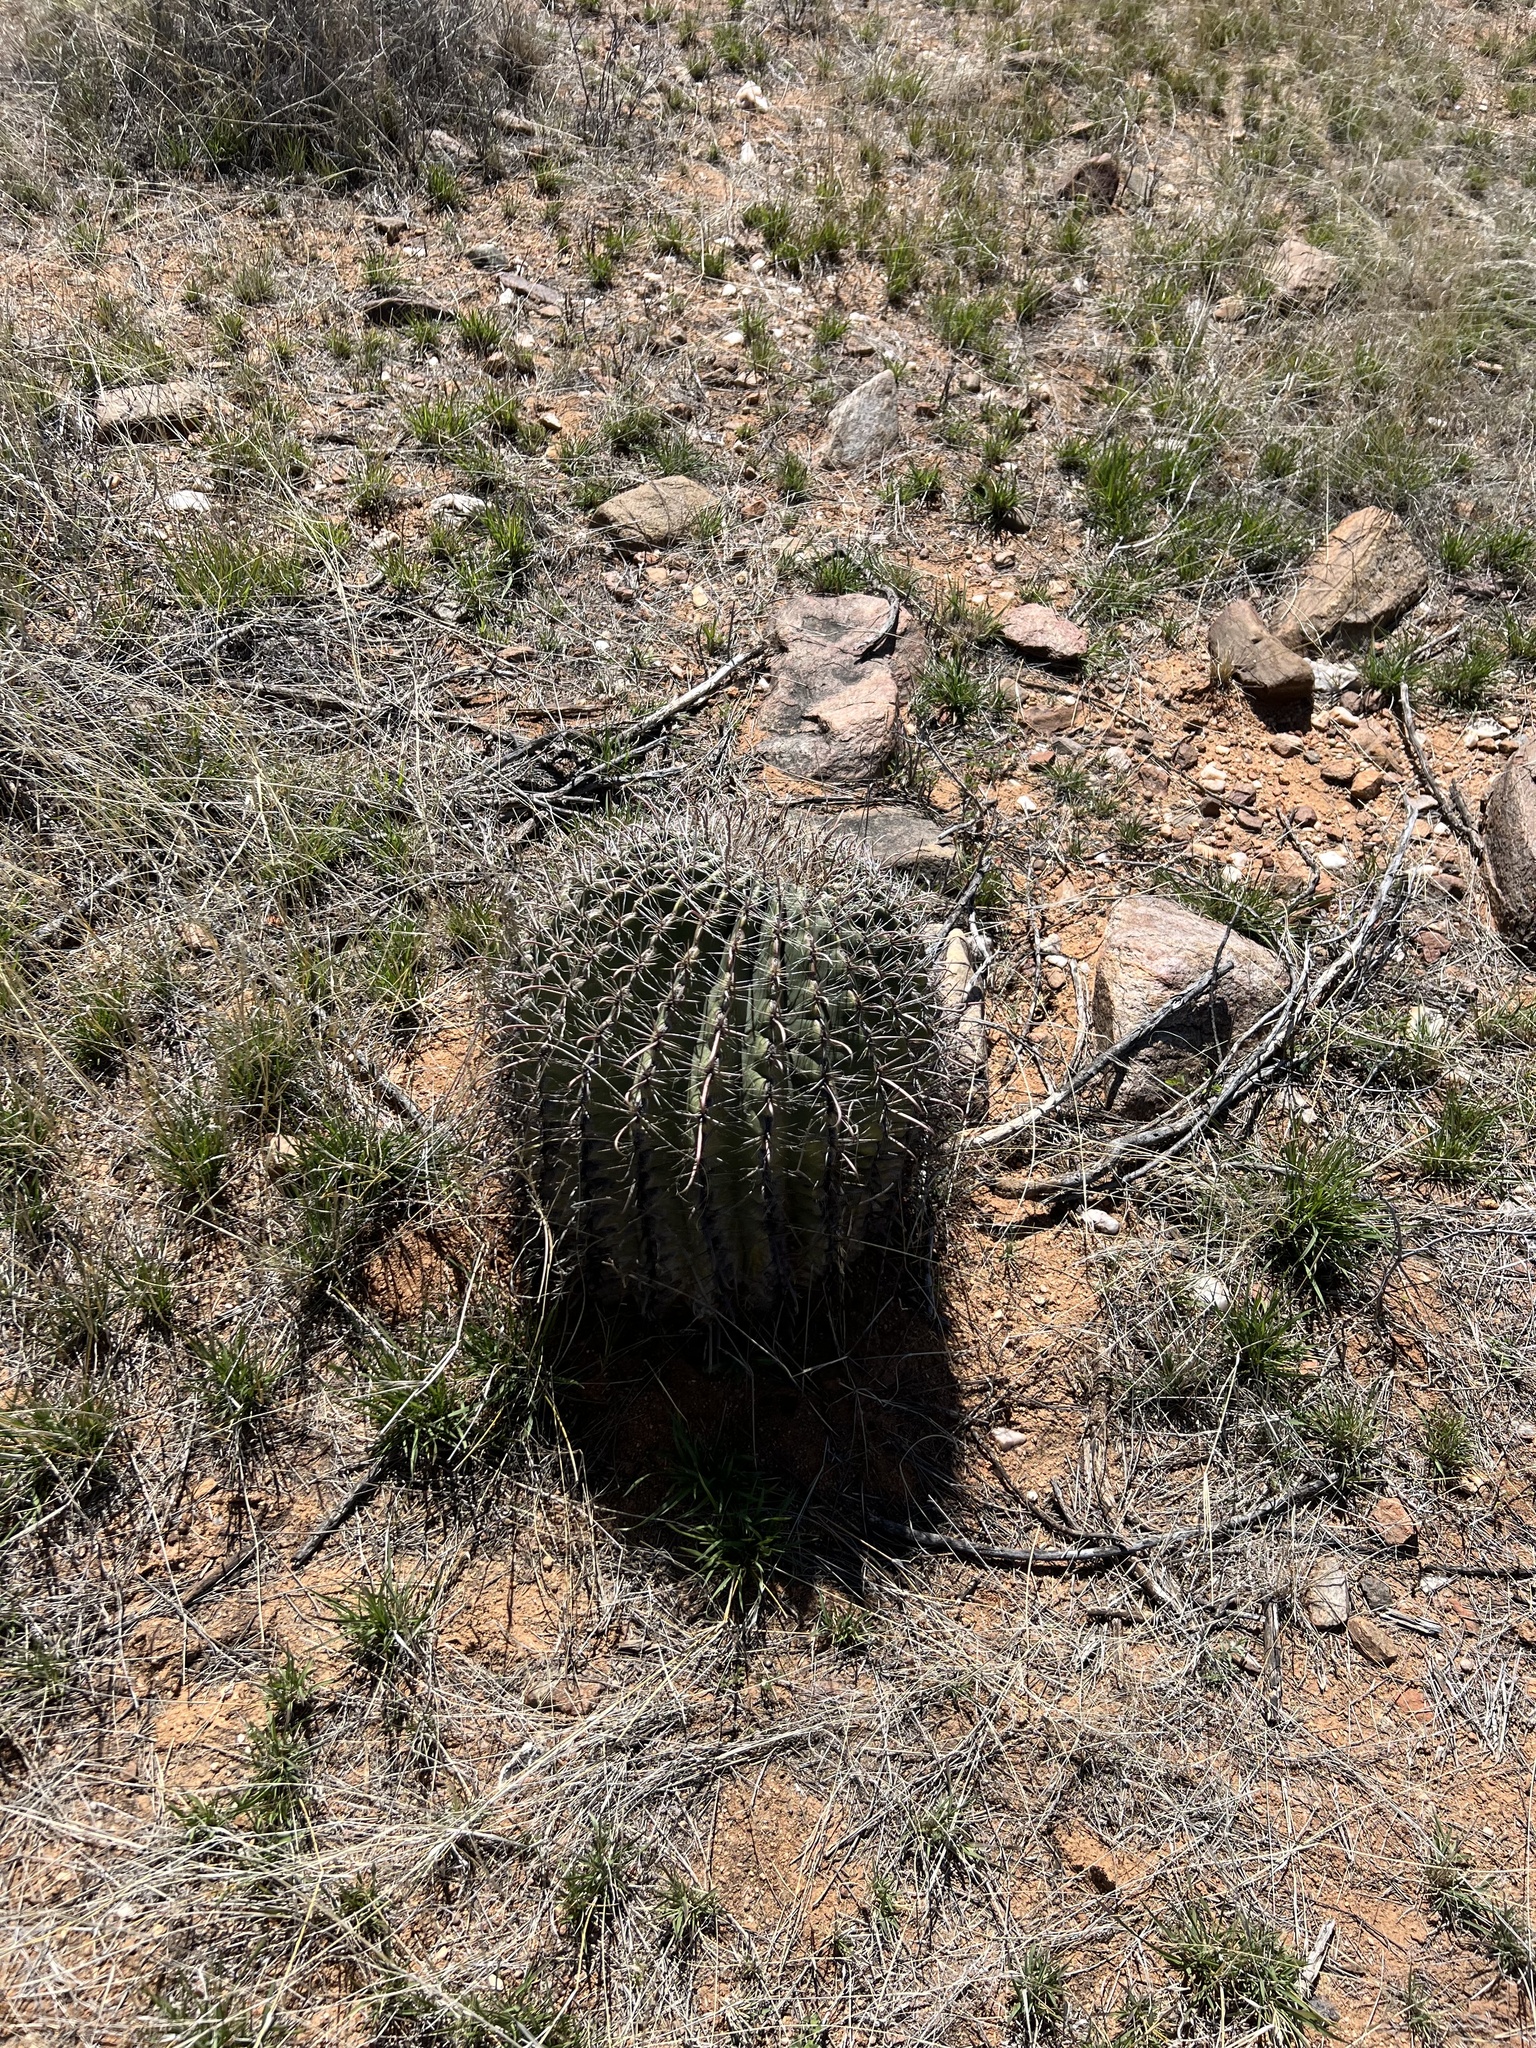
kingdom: Plantae
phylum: Tracheophyta
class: Magnoliopsida
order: Caryophyllales
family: Cactaceae
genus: Ferocactus
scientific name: Ferocactus wislizeni
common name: Candy barrel cactus
